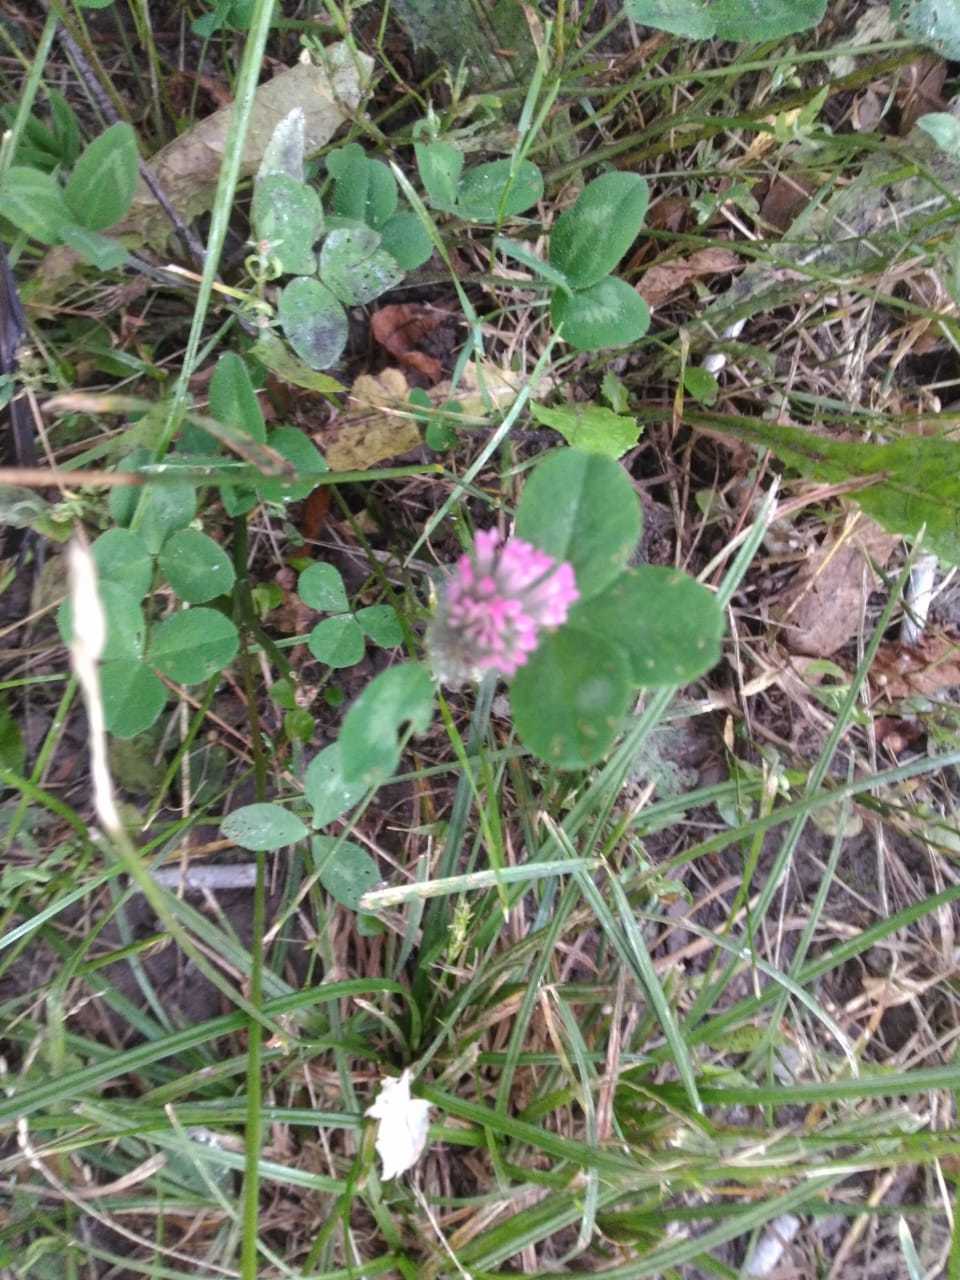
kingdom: Plantae
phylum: Tracheophyta
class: Magnoliopsida
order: Fabales
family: Fabaceae
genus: Trifolium
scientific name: Trifolium pratense
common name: Red clover
